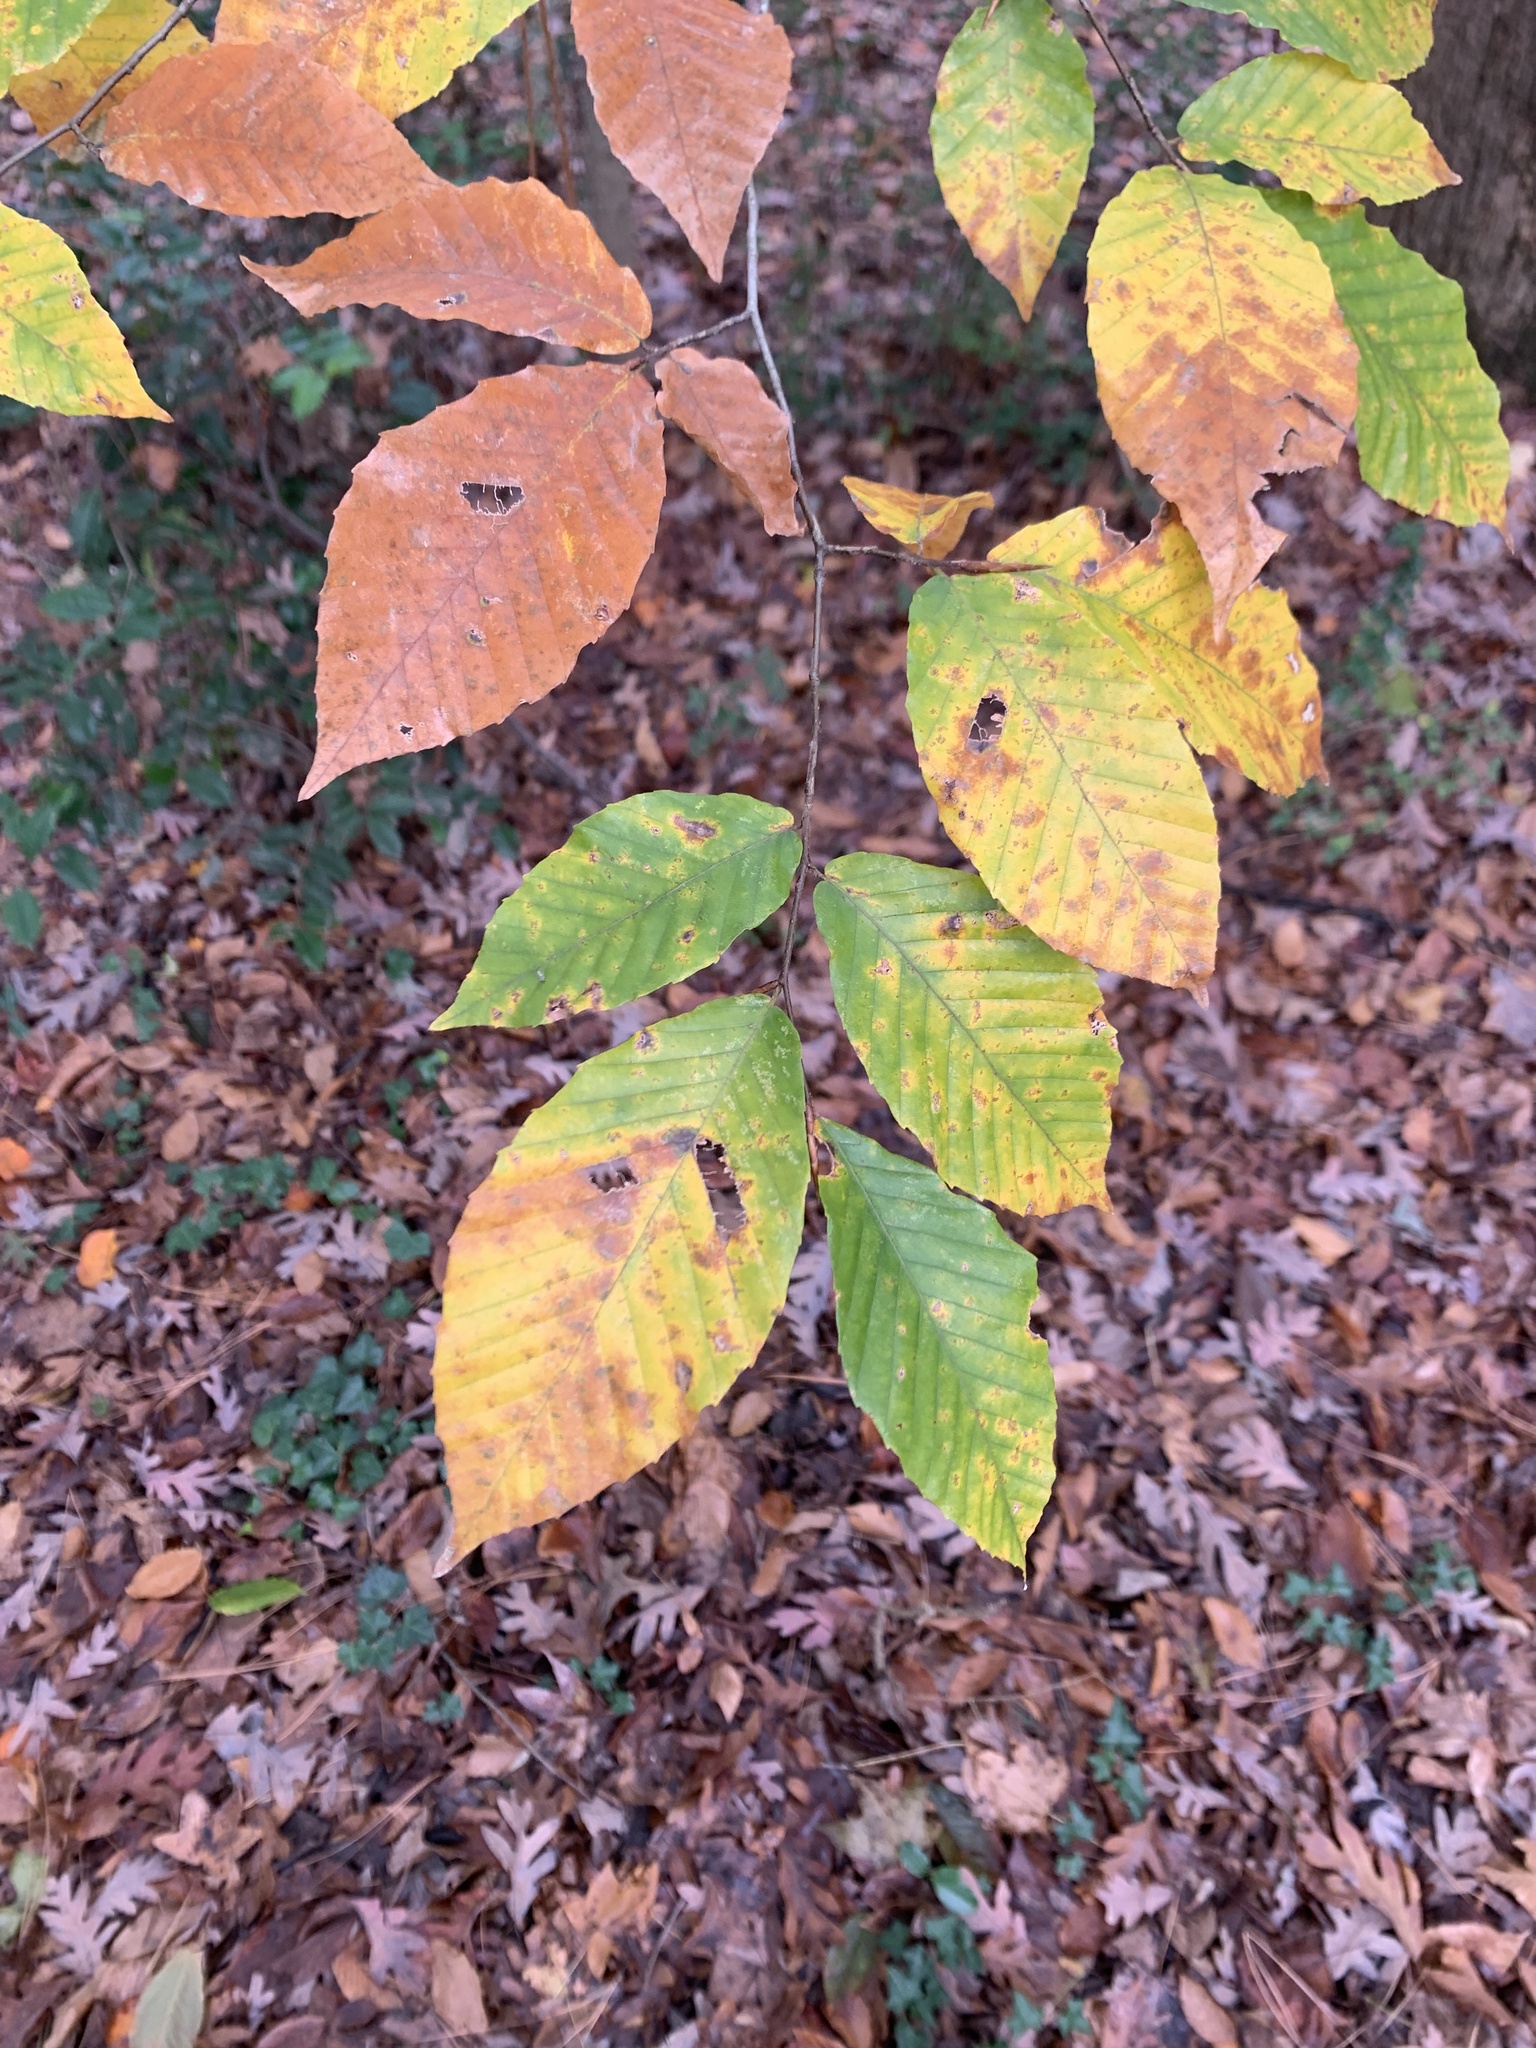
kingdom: Plantae
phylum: Tracheophyta
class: Magnoliopsida
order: Fagales
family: Fagaceae
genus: Fagus
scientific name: Fagus grandifolia
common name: American beech
